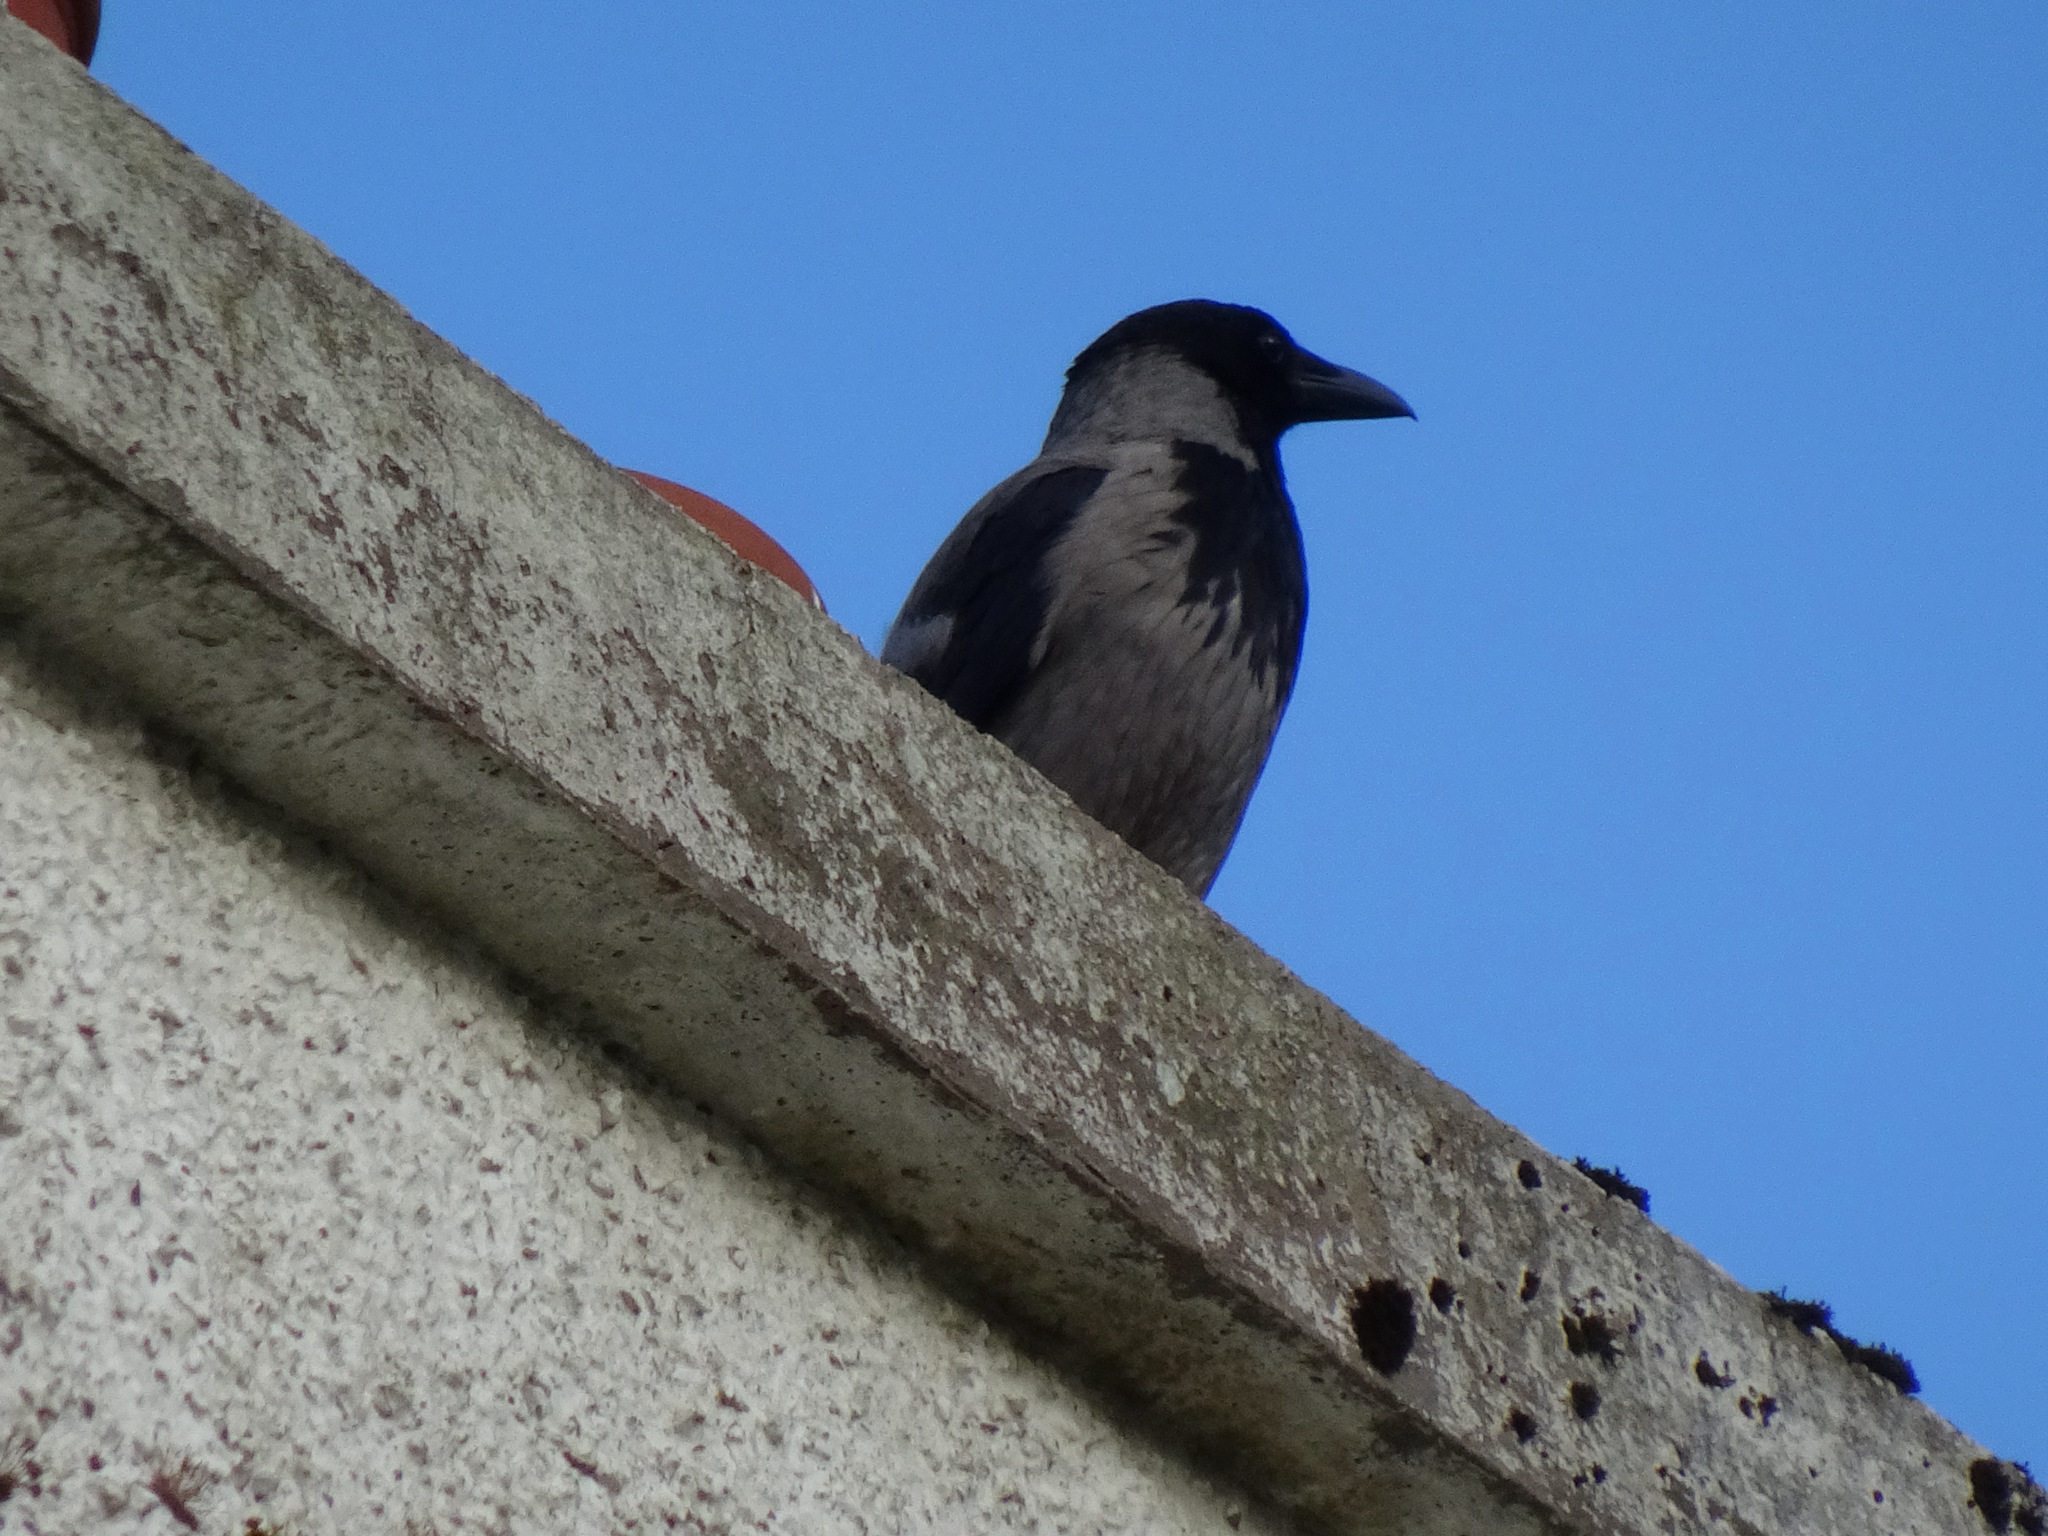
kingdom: Animalia
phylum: Chordata
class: Aves
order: Passeriformes
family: Corvidae
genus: Corvus
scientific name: Corvus cornix
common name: Hooded crow
